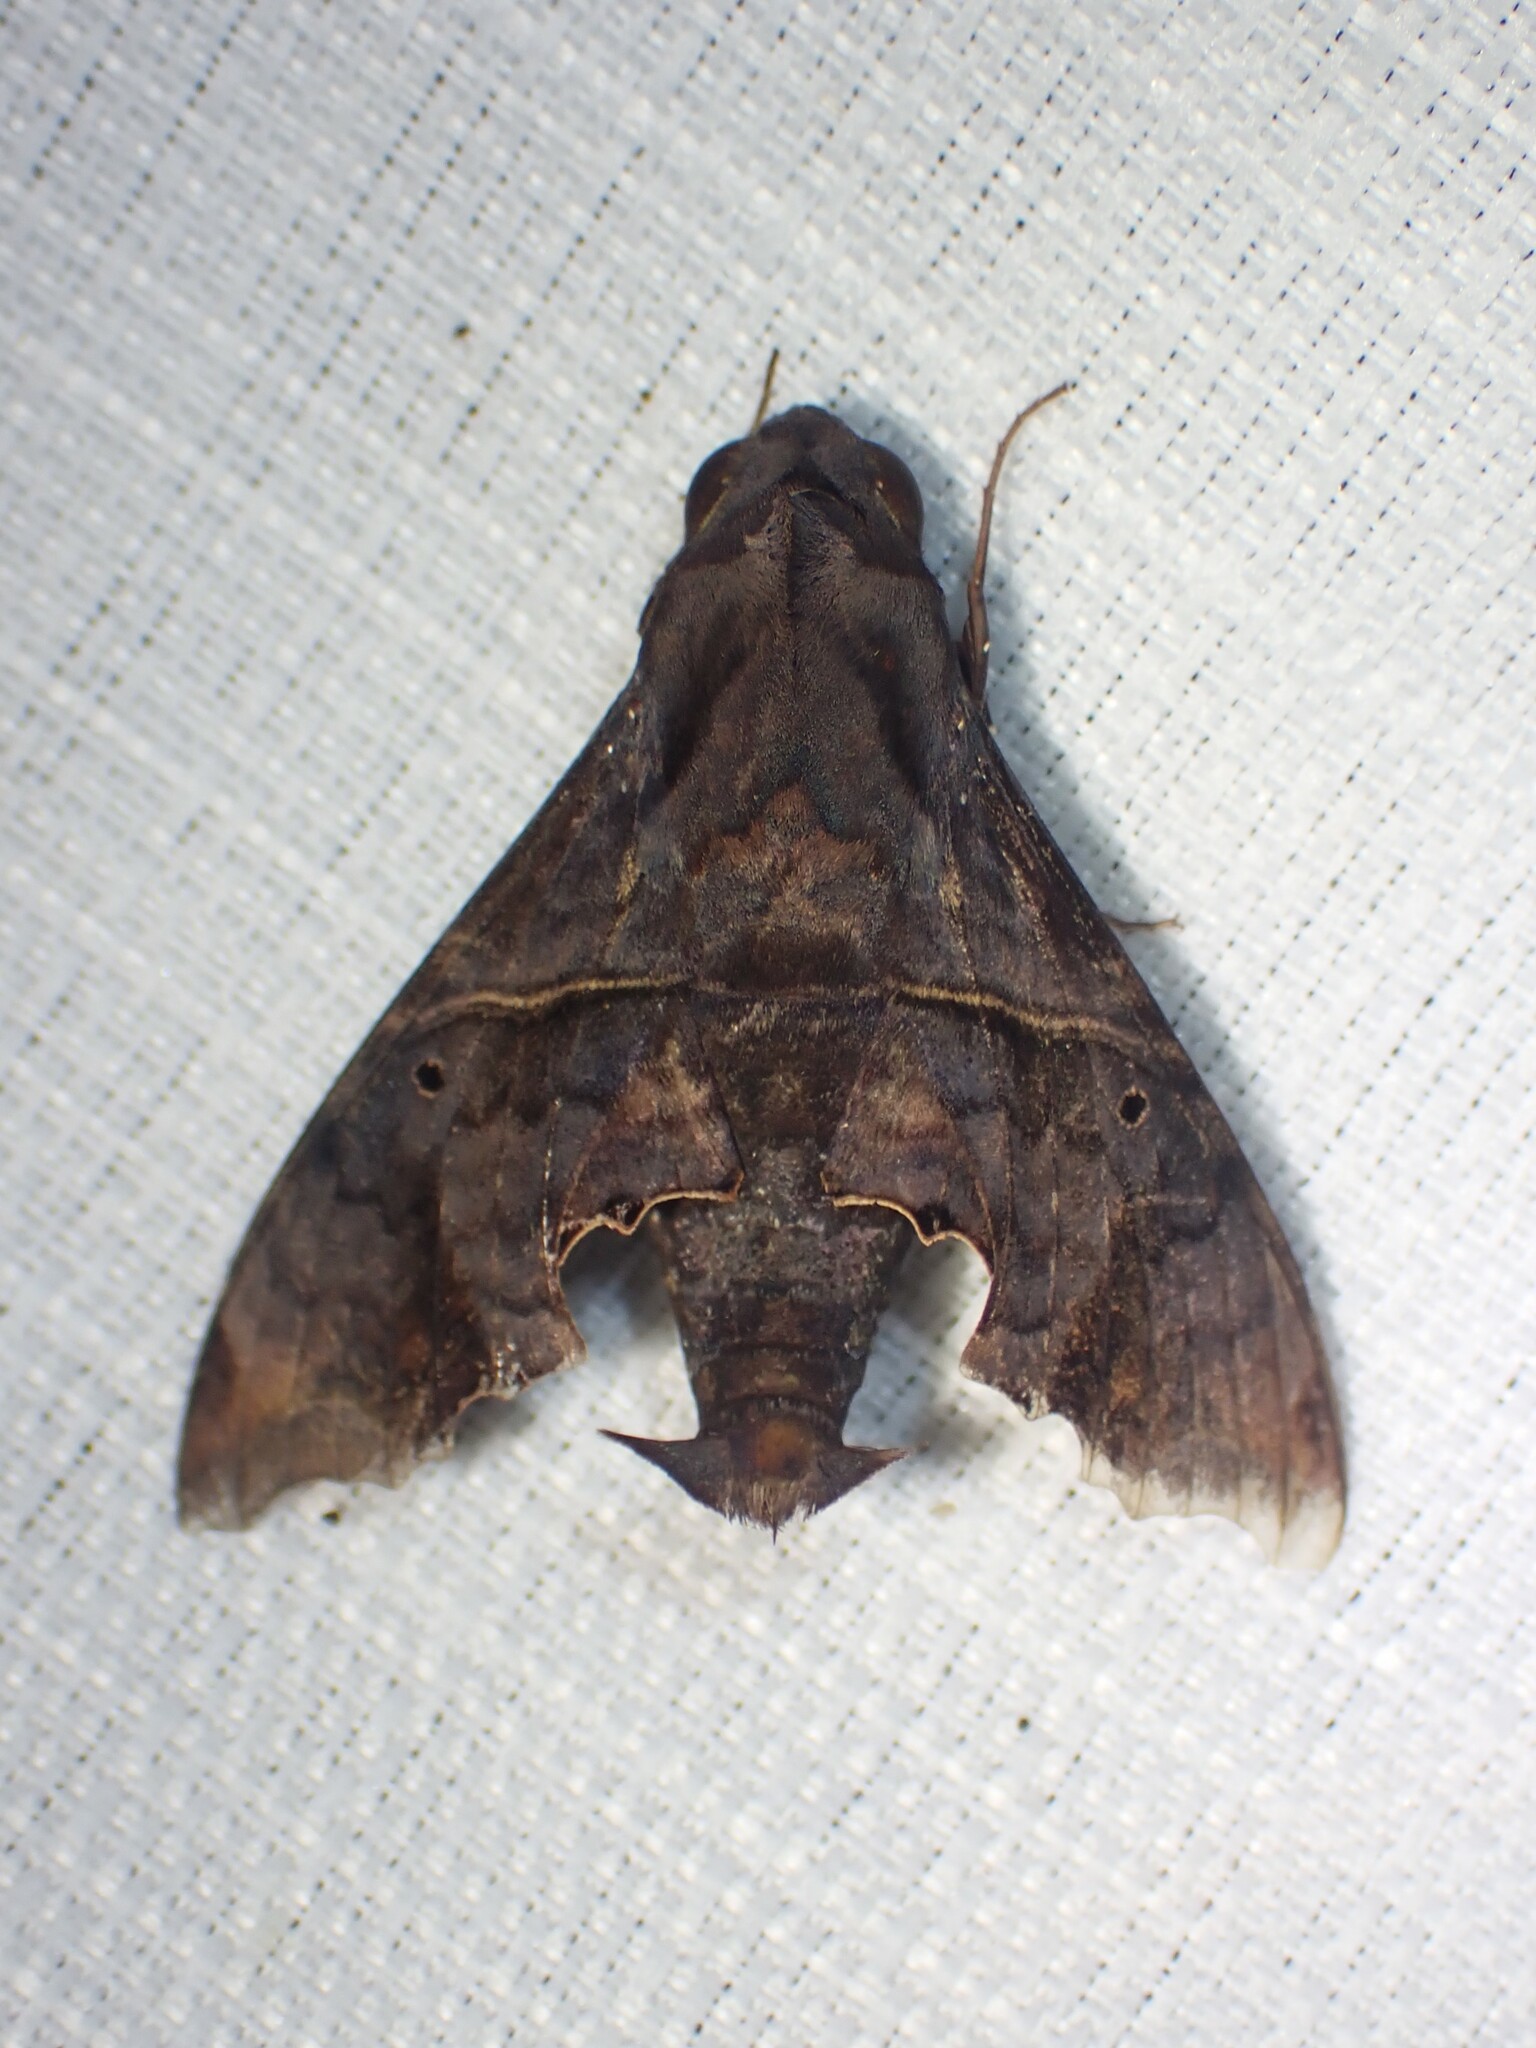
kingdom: Animalia
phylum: Arthropoda
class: Insecta
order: Lepidoptera
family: Sphingidae
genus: Enyo
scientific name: Enyo lugubris
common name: Mournful sphinx
